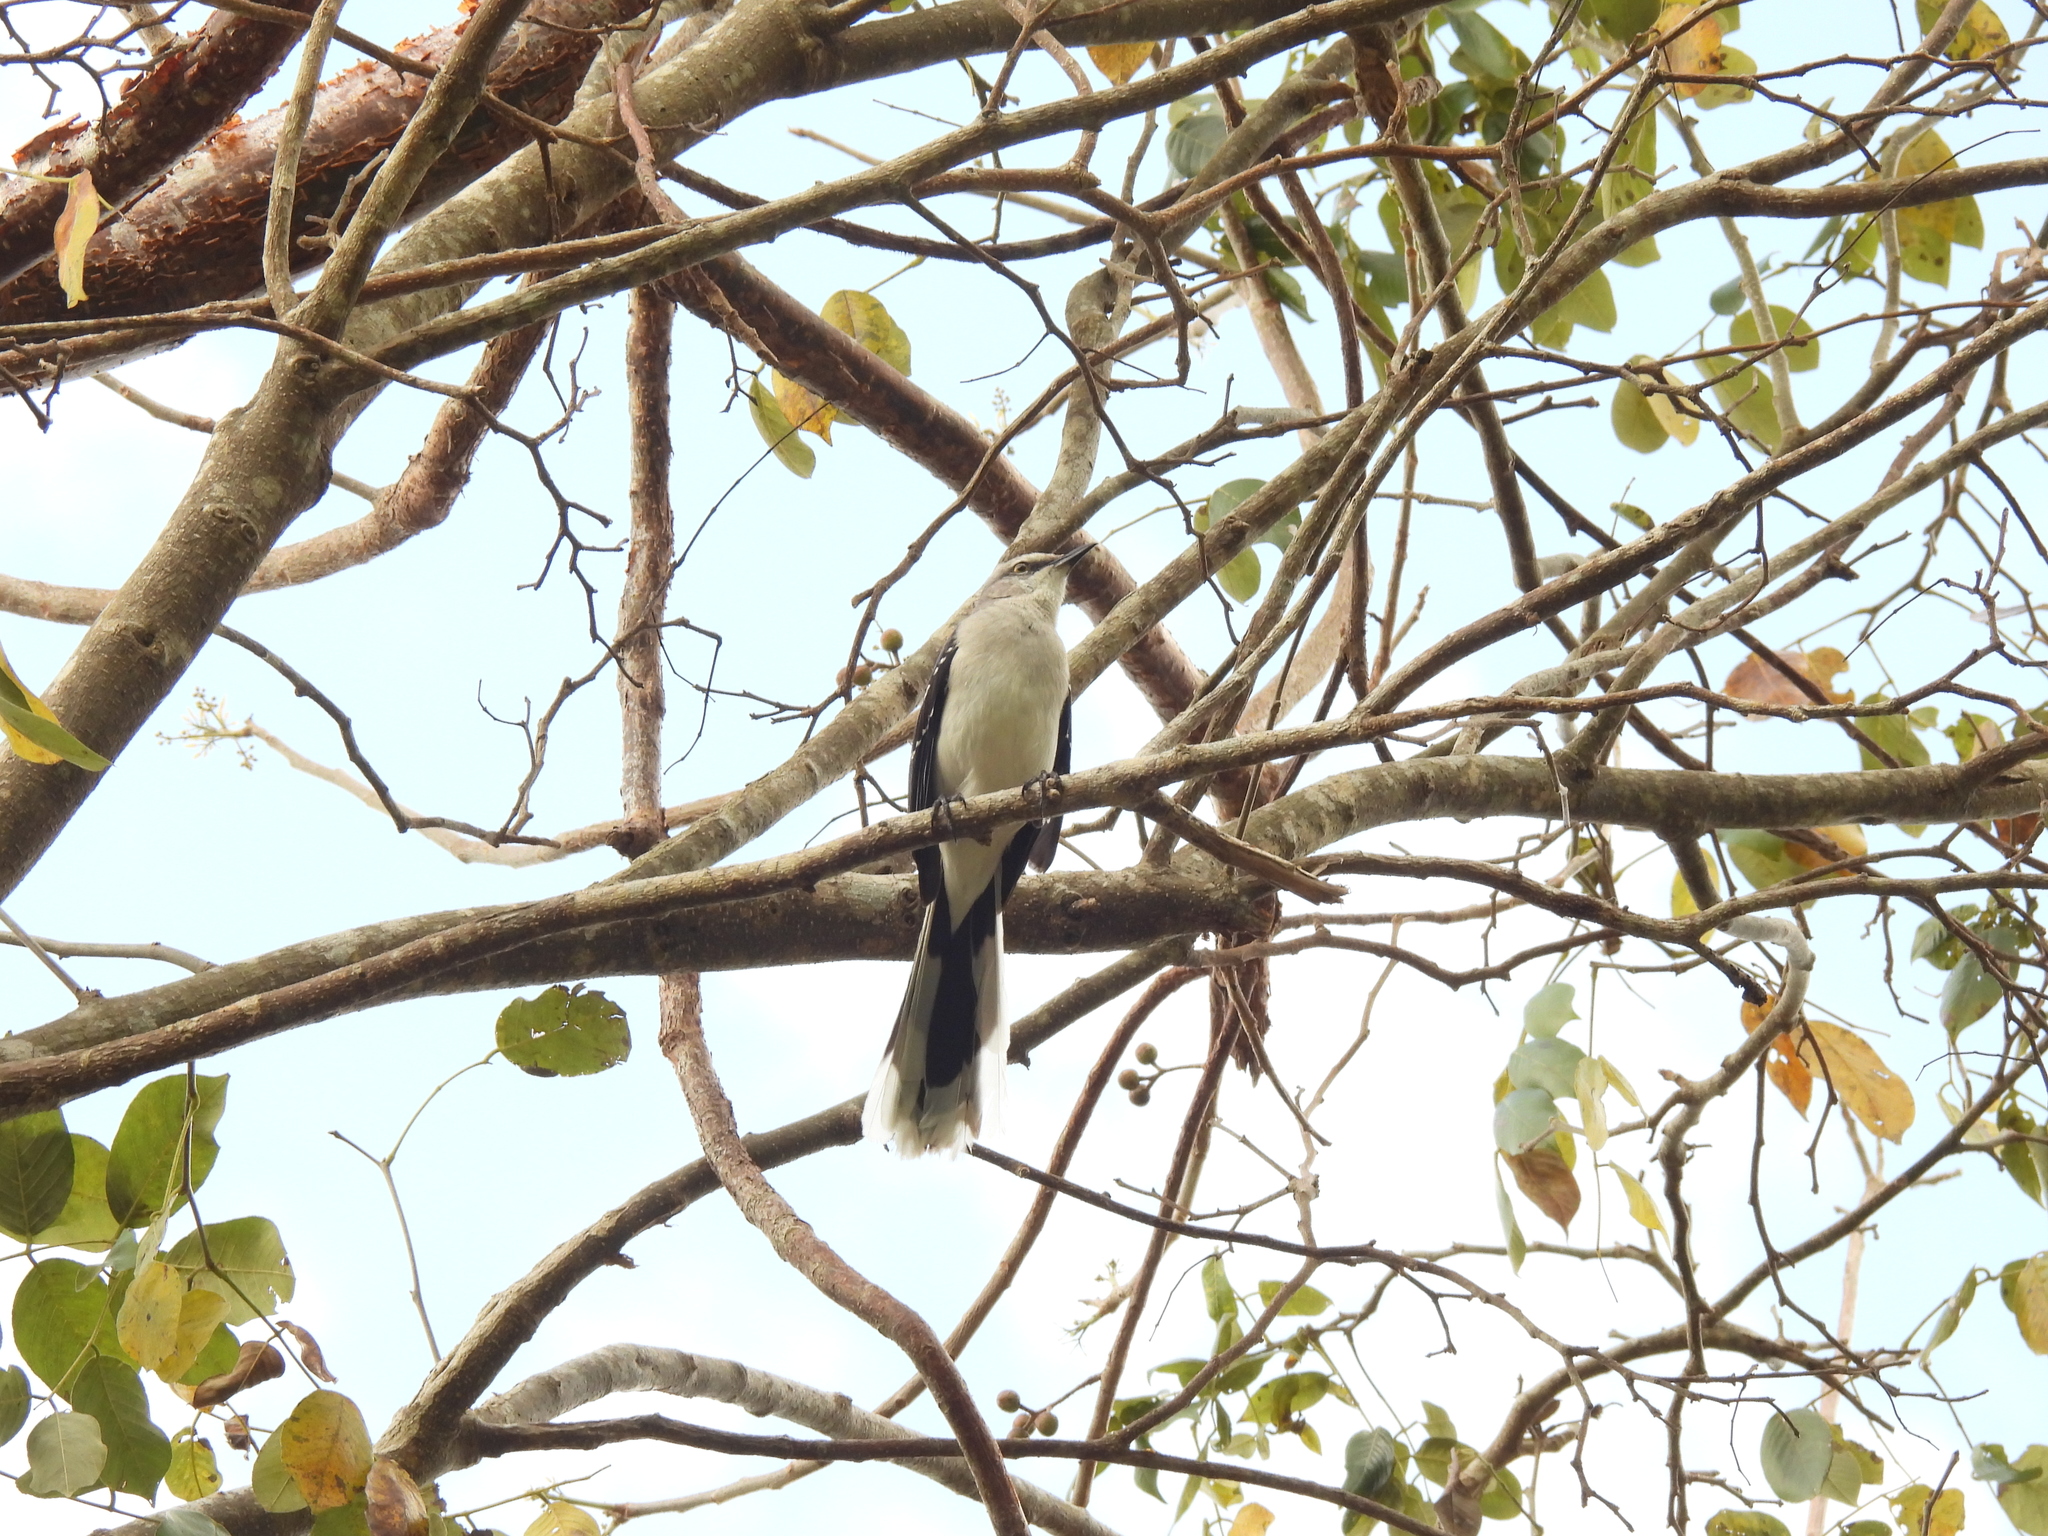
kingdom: Animalia
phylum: Chordata
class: Aves
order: Passeriformes
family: Mimidae
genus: Mimus
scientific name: Mimus gilvus
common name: Tropical mockingbird
